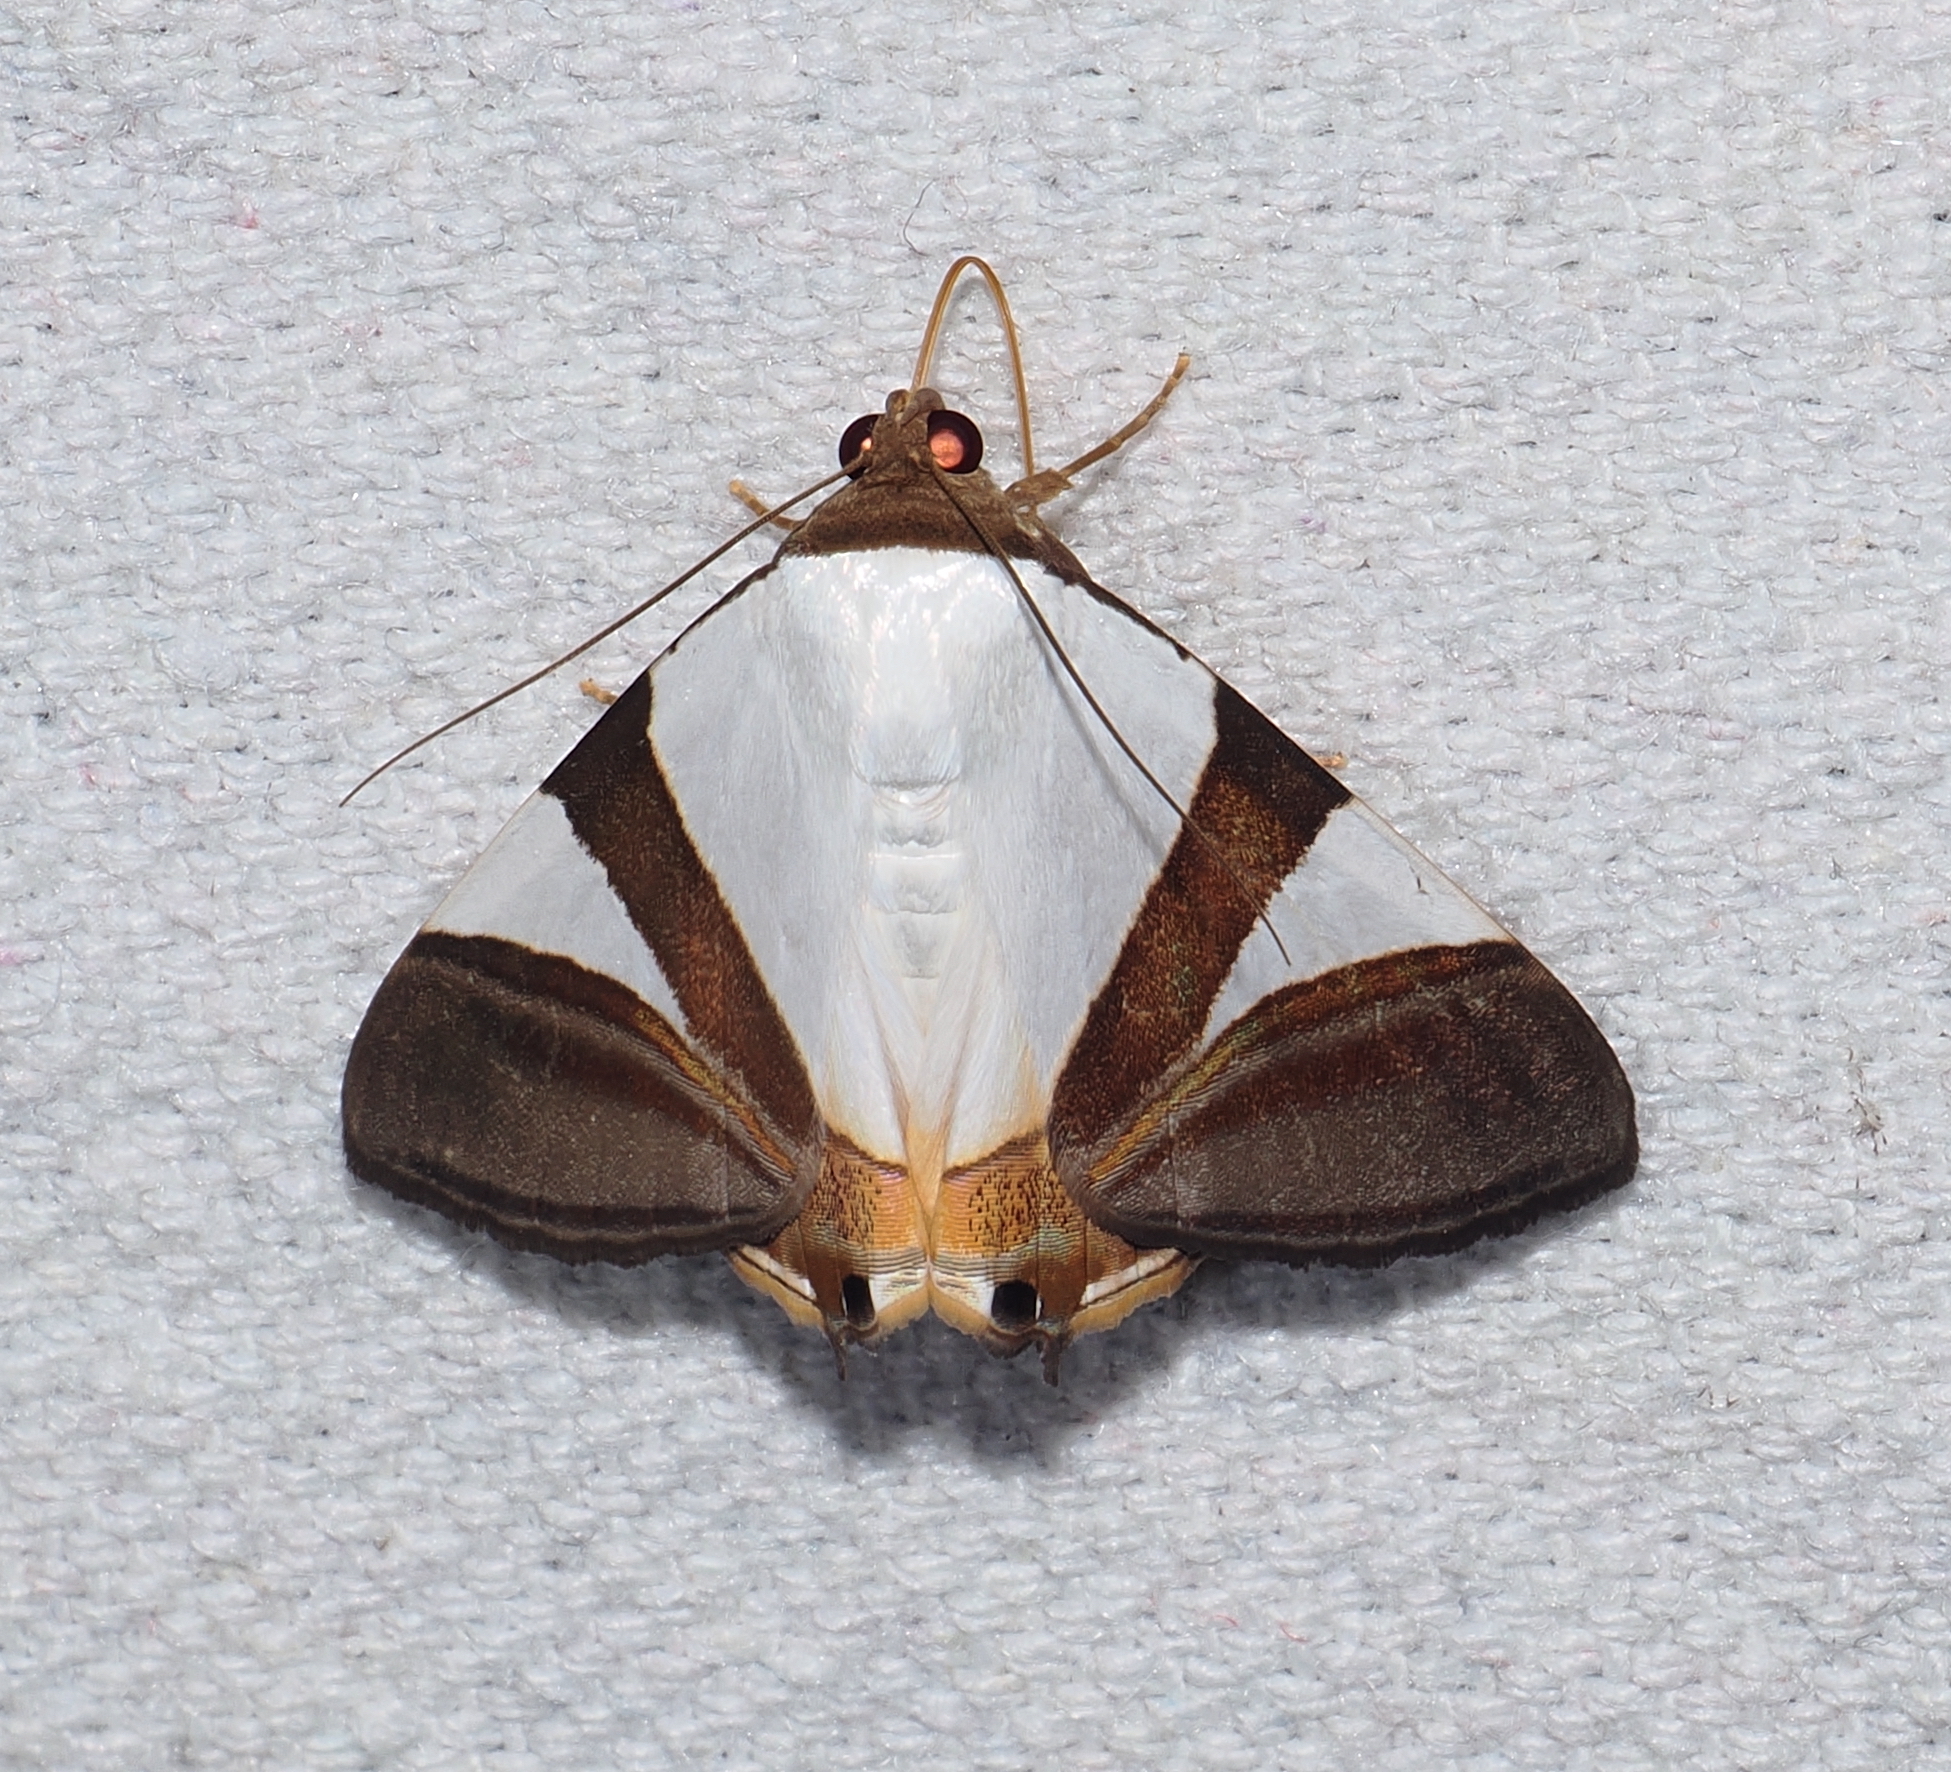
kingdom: Animalia
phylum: Arthropoda
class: Insecta
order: Lepidoptera
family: Erebidae
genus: Eulepidotis
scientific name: Eulepidotis dominicata
